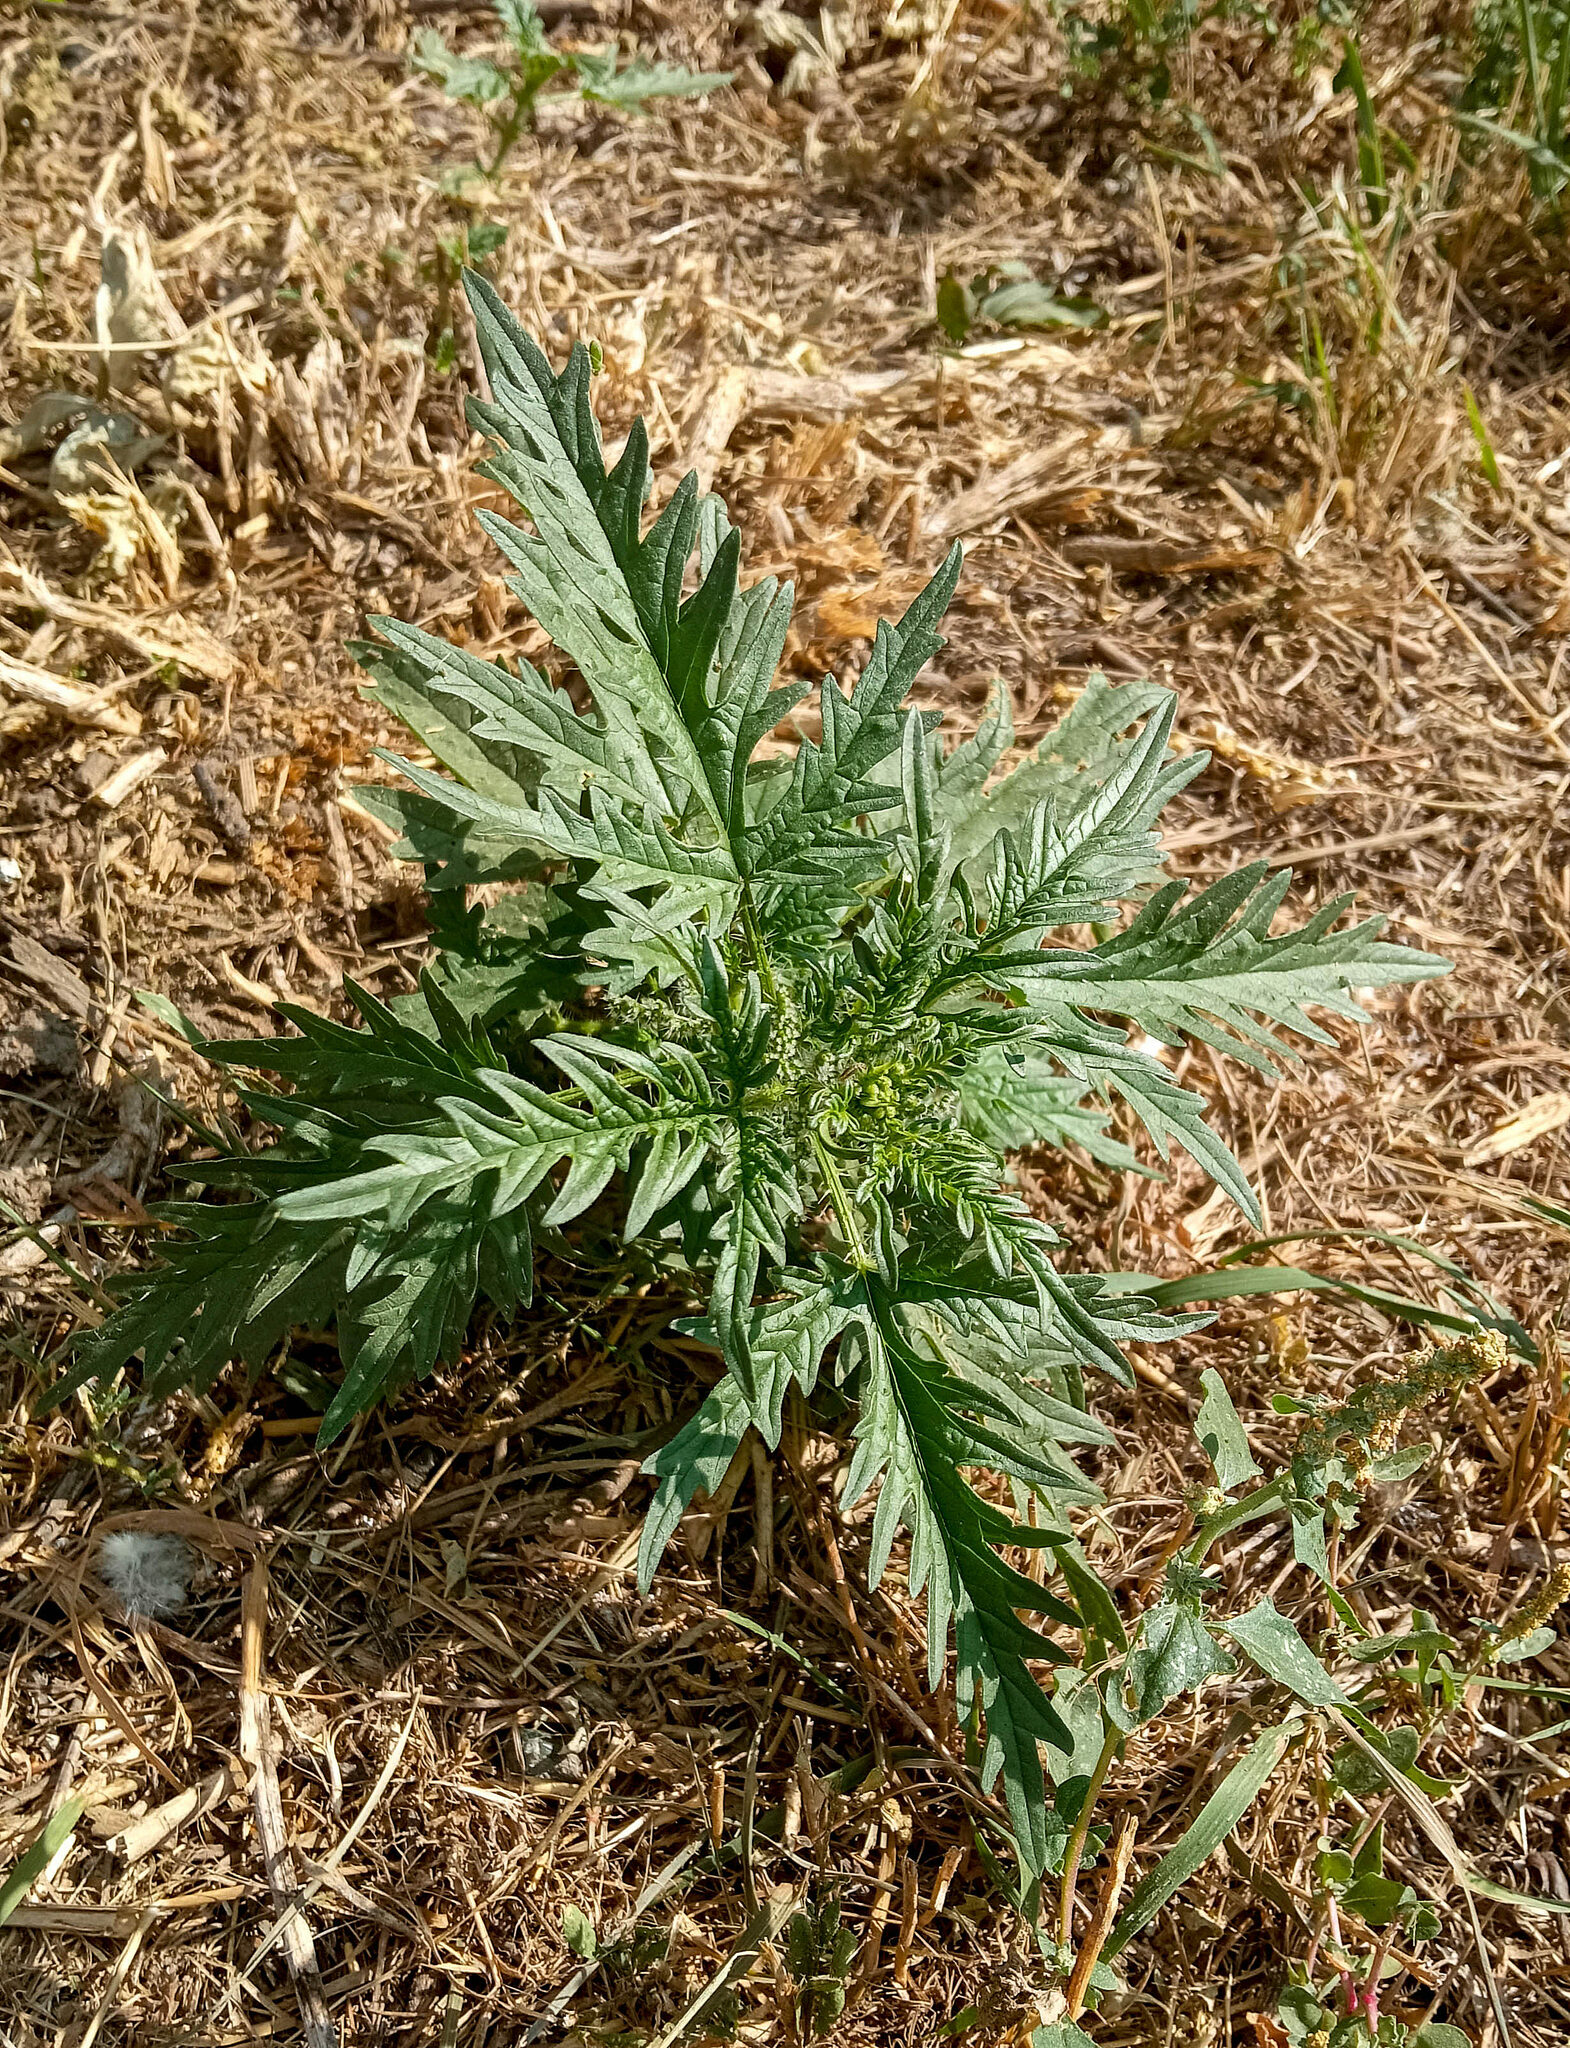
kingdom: Plantae
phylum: Tracheophyta
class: Magnoliopsida
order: Rosales
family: Urticaceae
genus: Urtica
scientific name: Urtica cannabina
